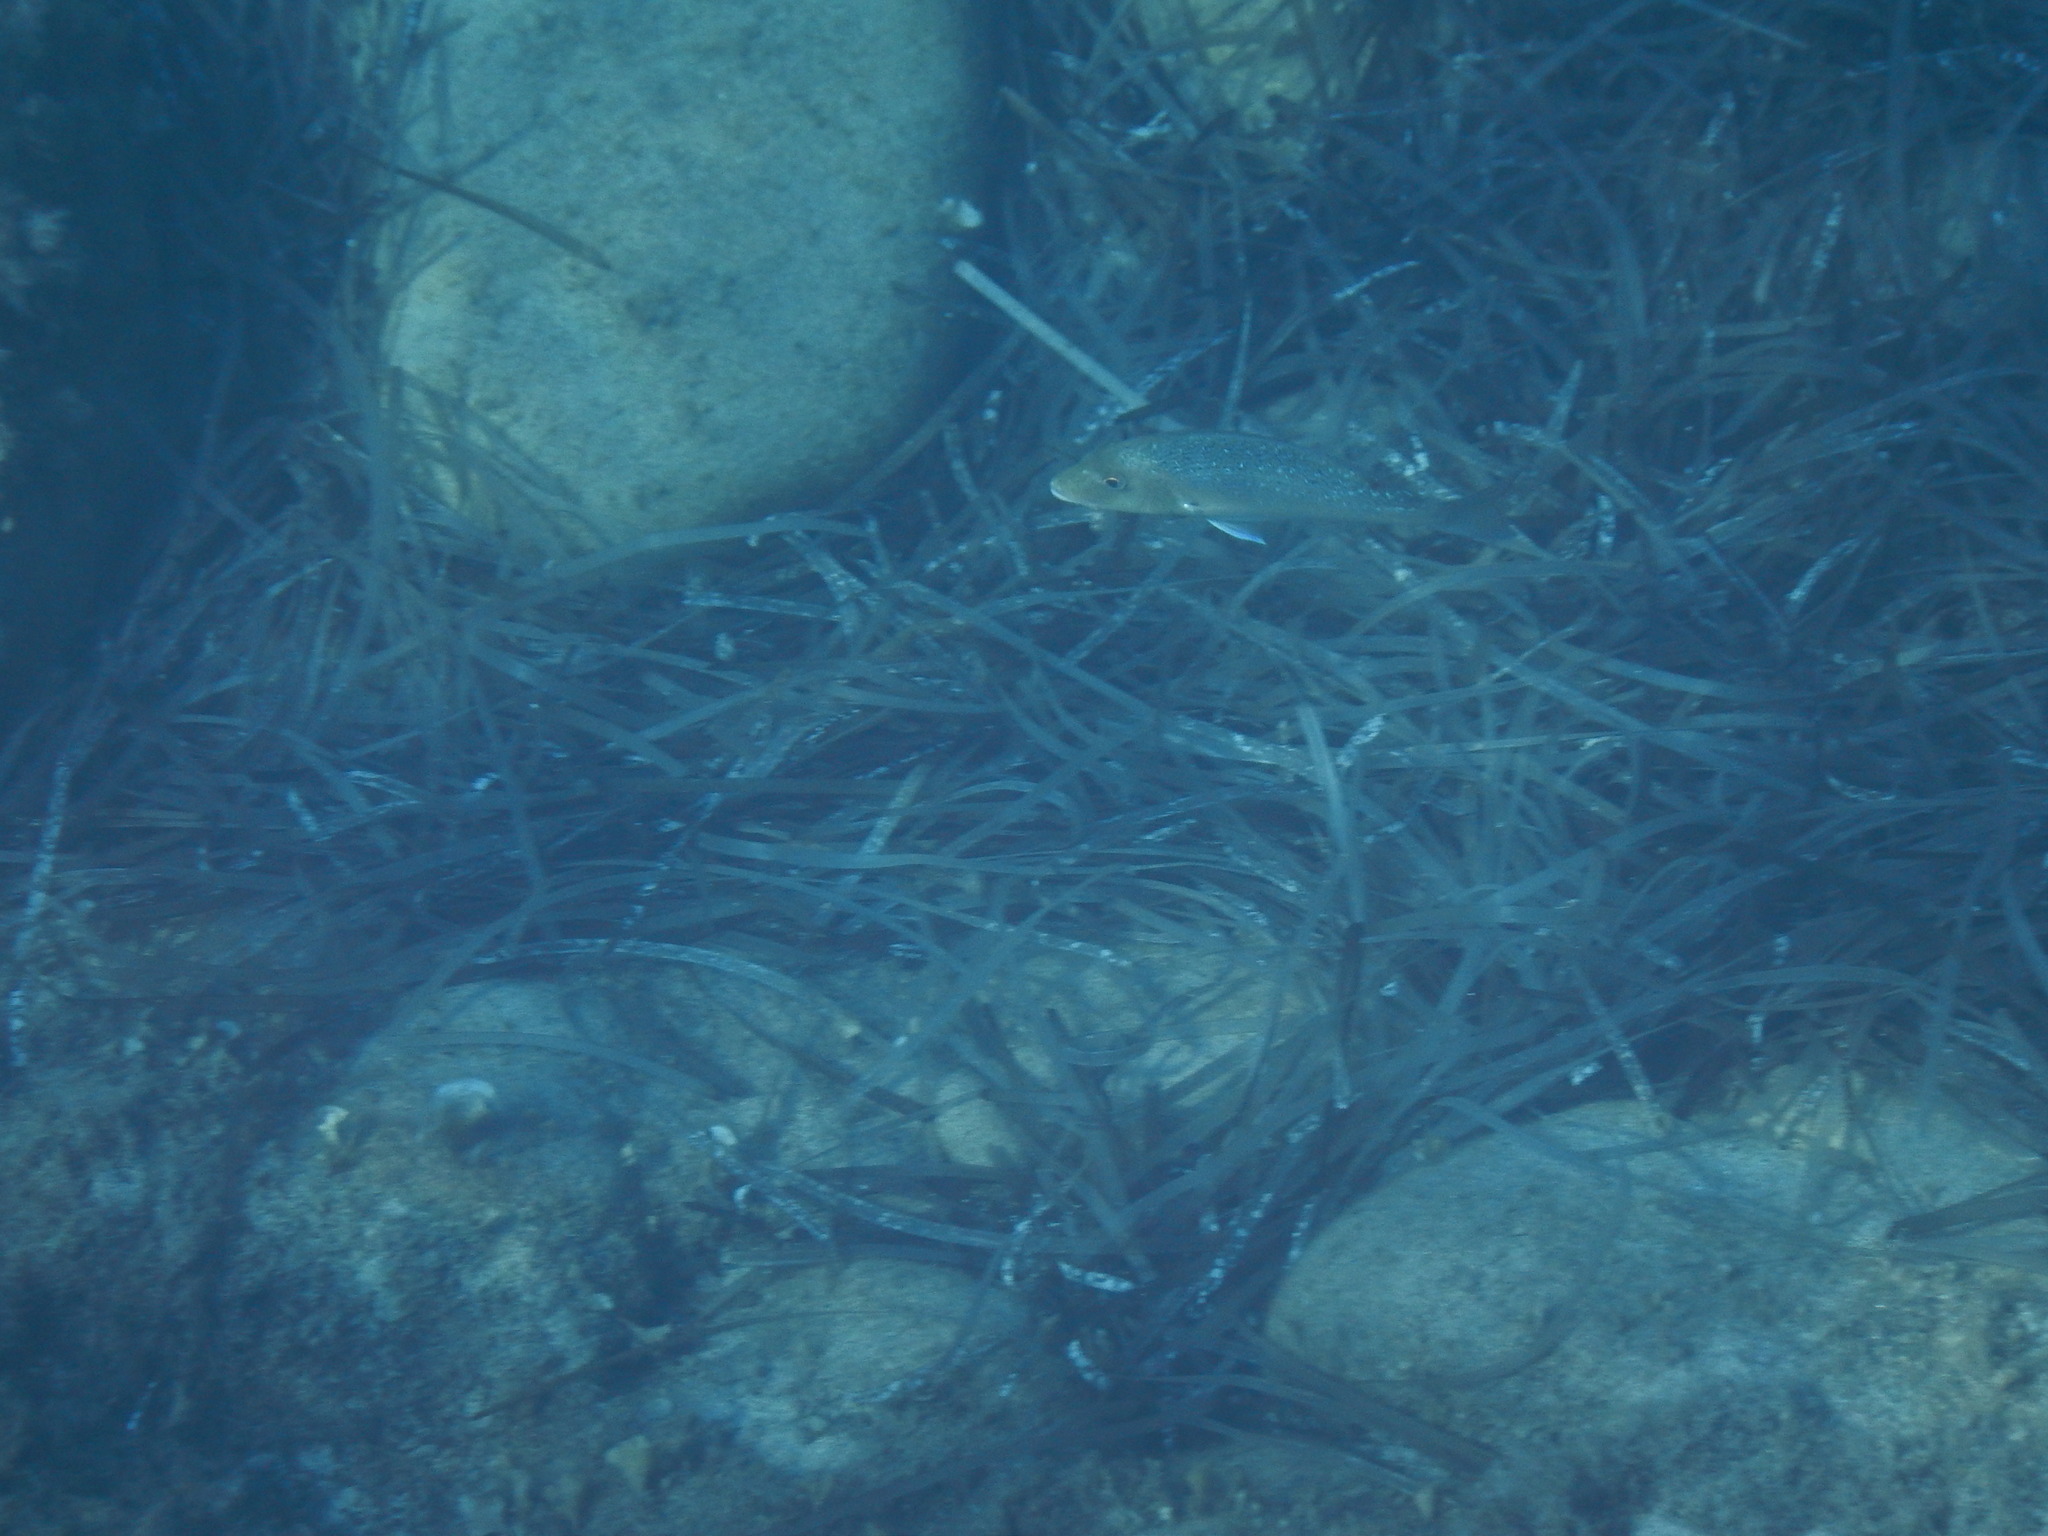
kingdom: Animalia
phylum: Chordata
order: Perciformes
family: Sparidae
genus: Dentex
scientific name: Dentex dentex
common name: Dentex
